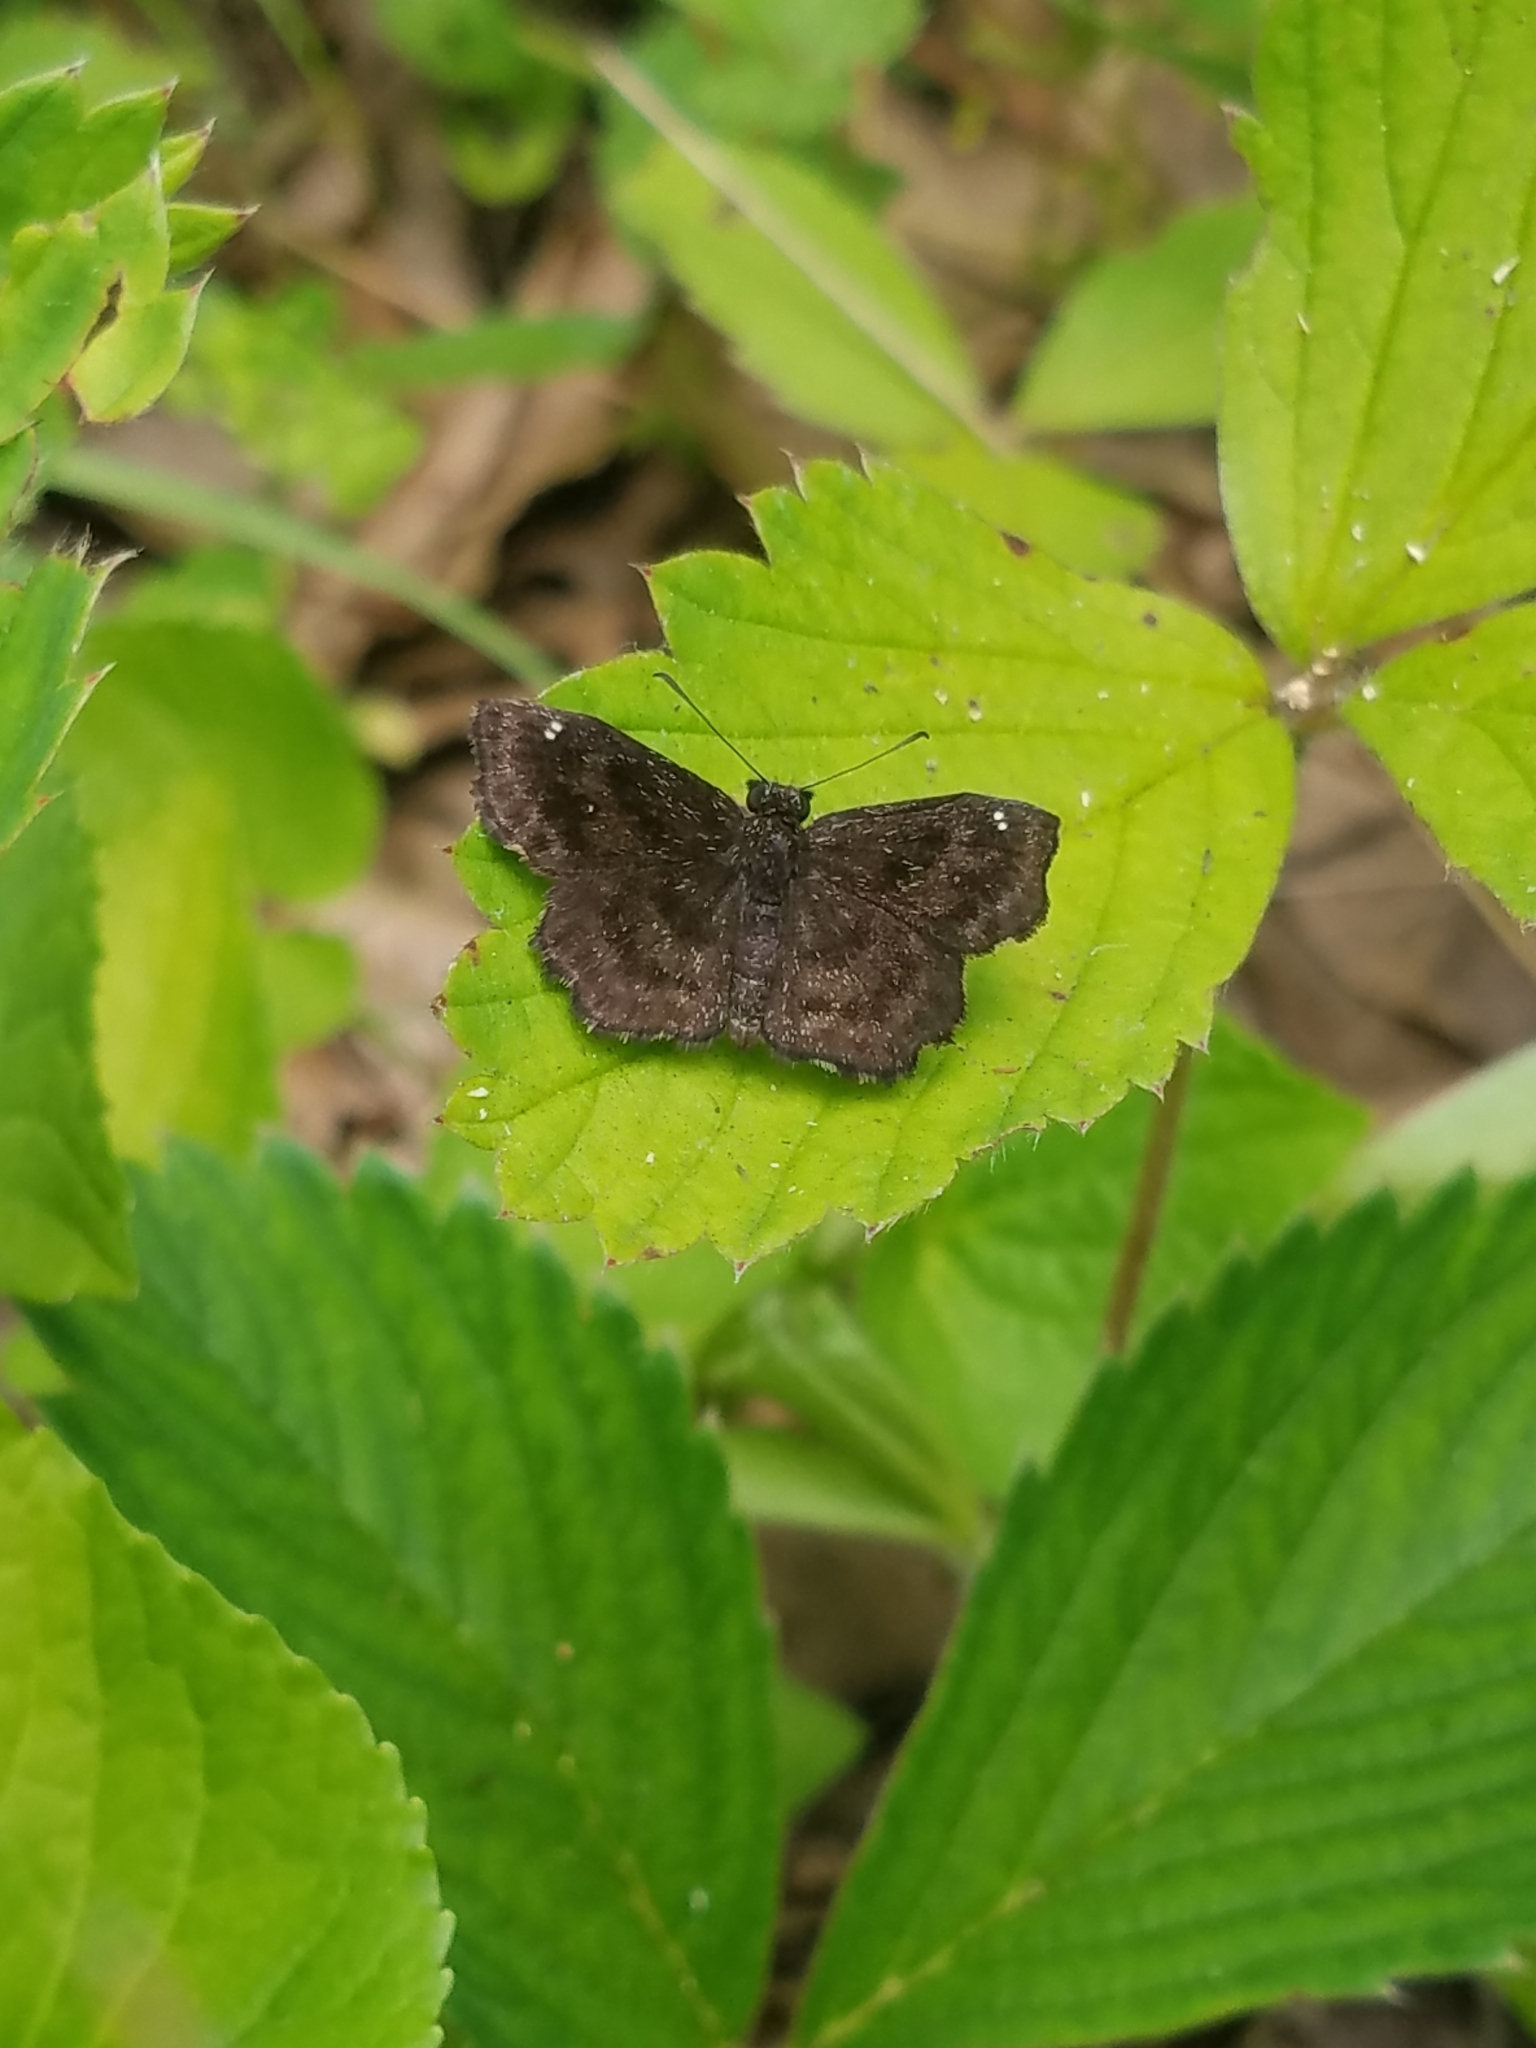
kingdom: Animalia
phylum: Arthropoda
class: Insecta
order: Lepidoptera
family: Hesperiidae
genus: Staphylus
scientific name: Staphylus mazans
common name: Mazans scallopwing
